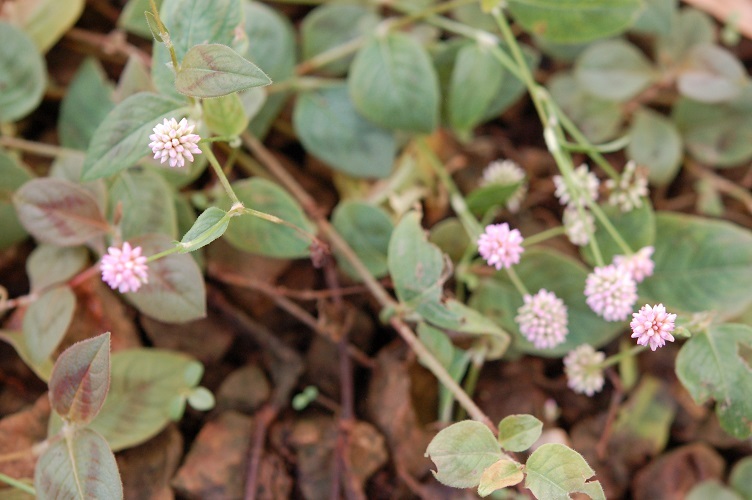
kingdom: Plantae
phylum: Tracheophyta
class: Magnoliopsida
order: Caryophyllales
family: Polygonaceae
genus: Persicaria
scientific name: Persicaria capitata
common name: Pinkhead smartweed
